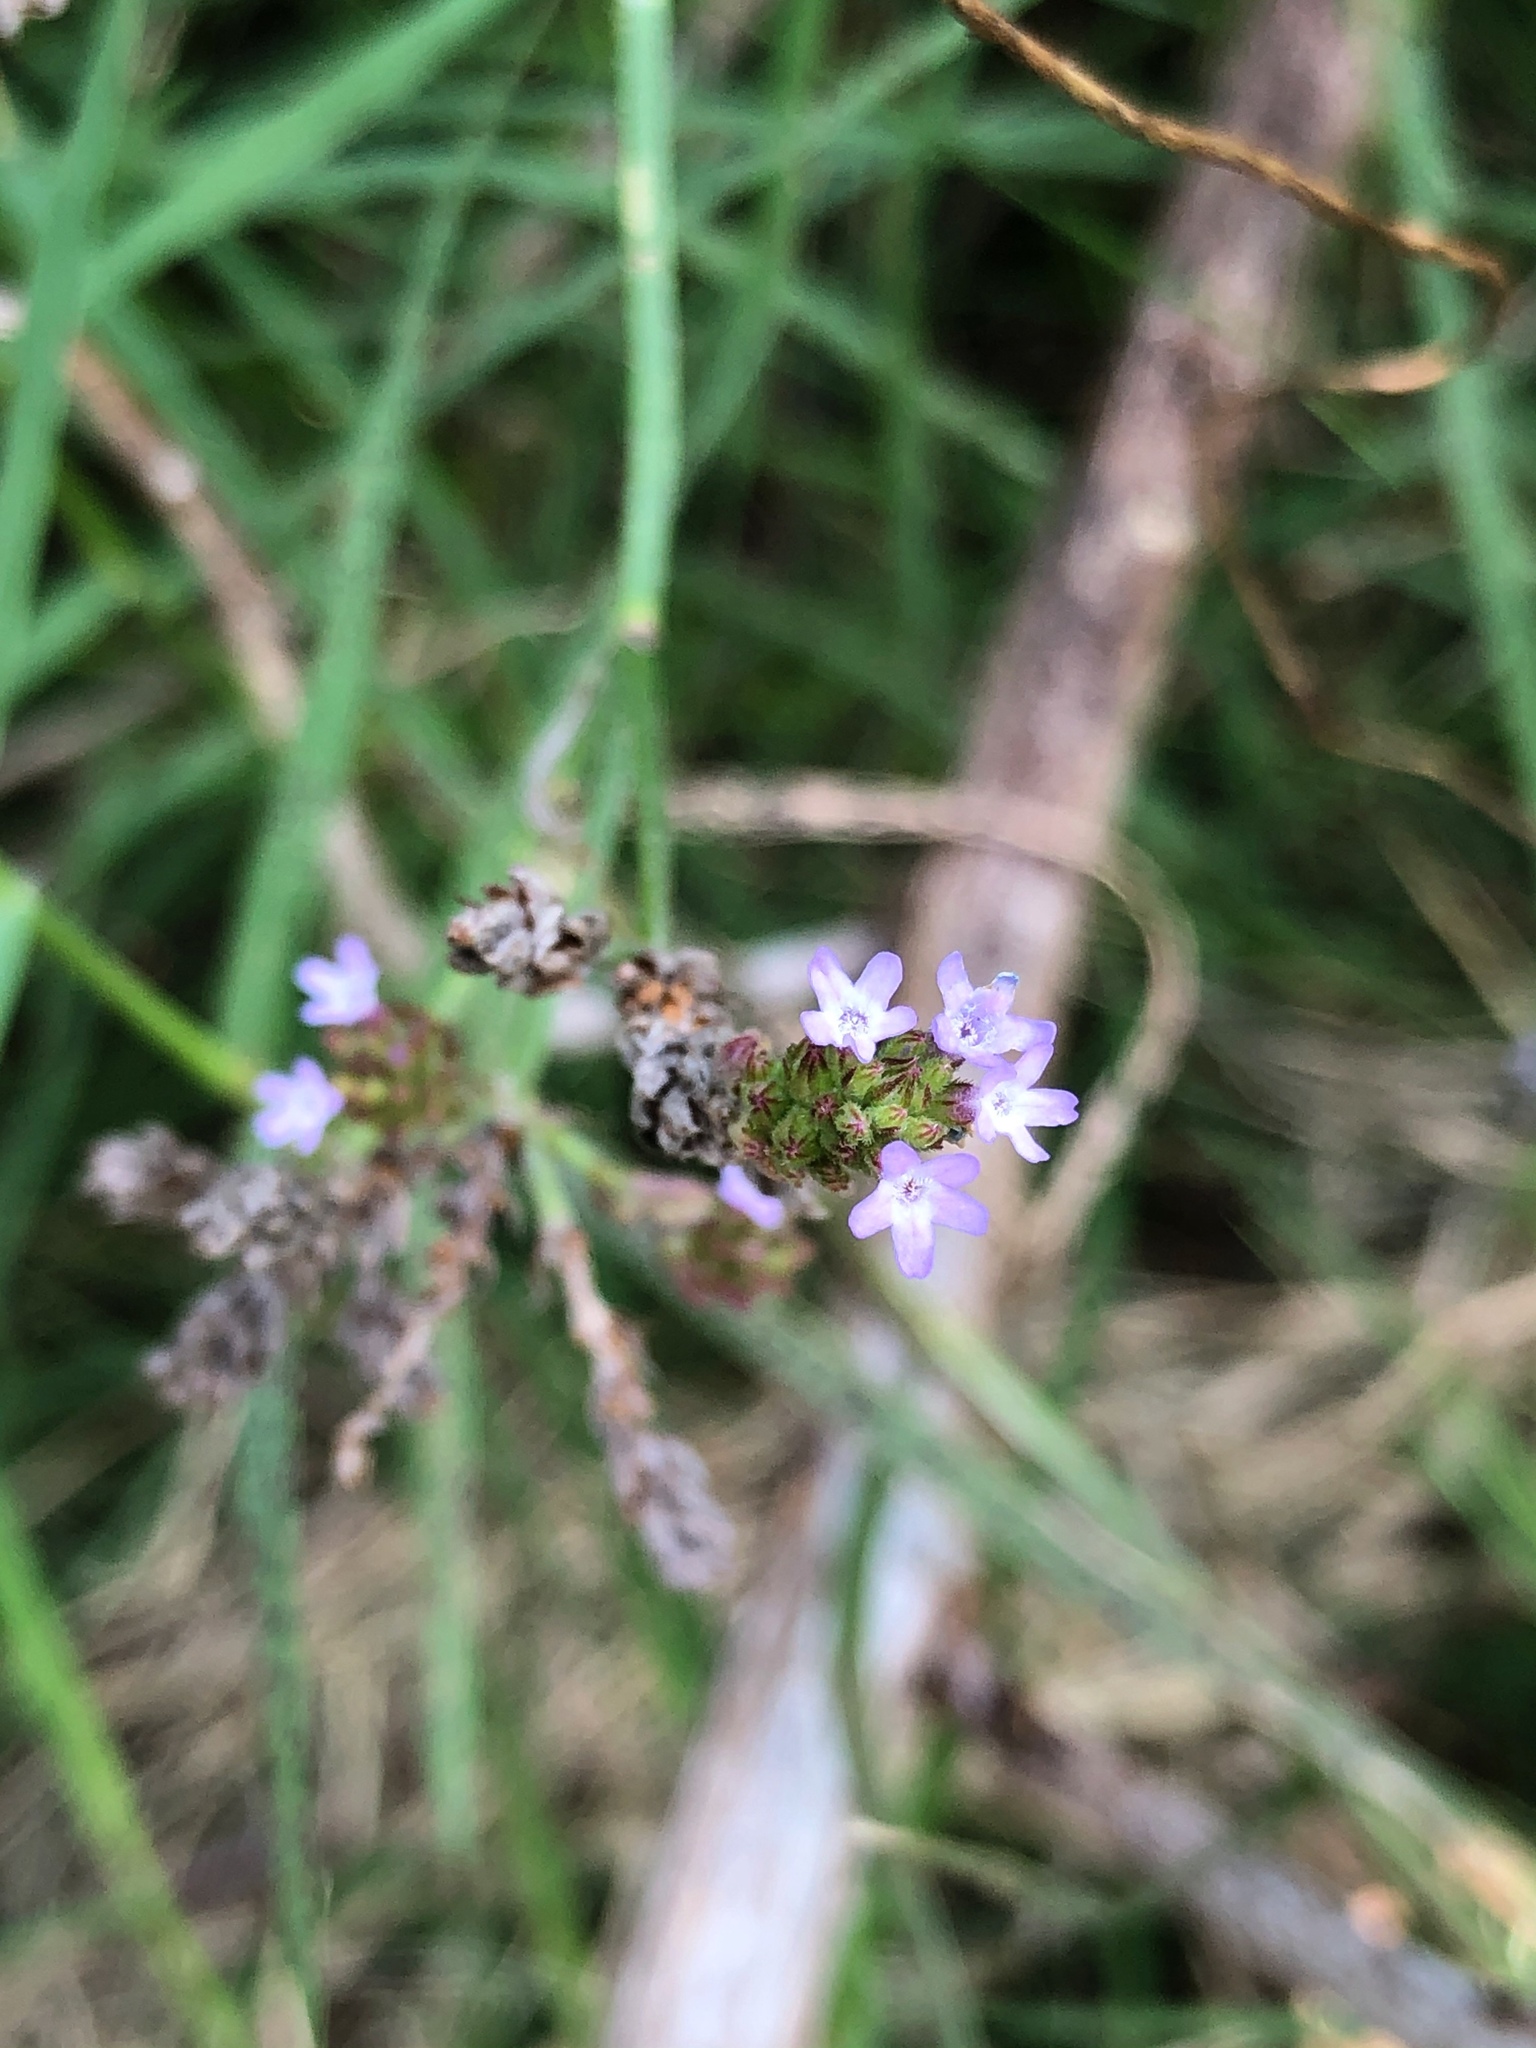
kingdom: Plantae
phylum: Tracheophyta
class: Magnoliopsida
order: Lamiales
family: Verbenaceae
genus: Verbena
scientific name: Verbena brasiliensis
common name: Brazilian vervain
